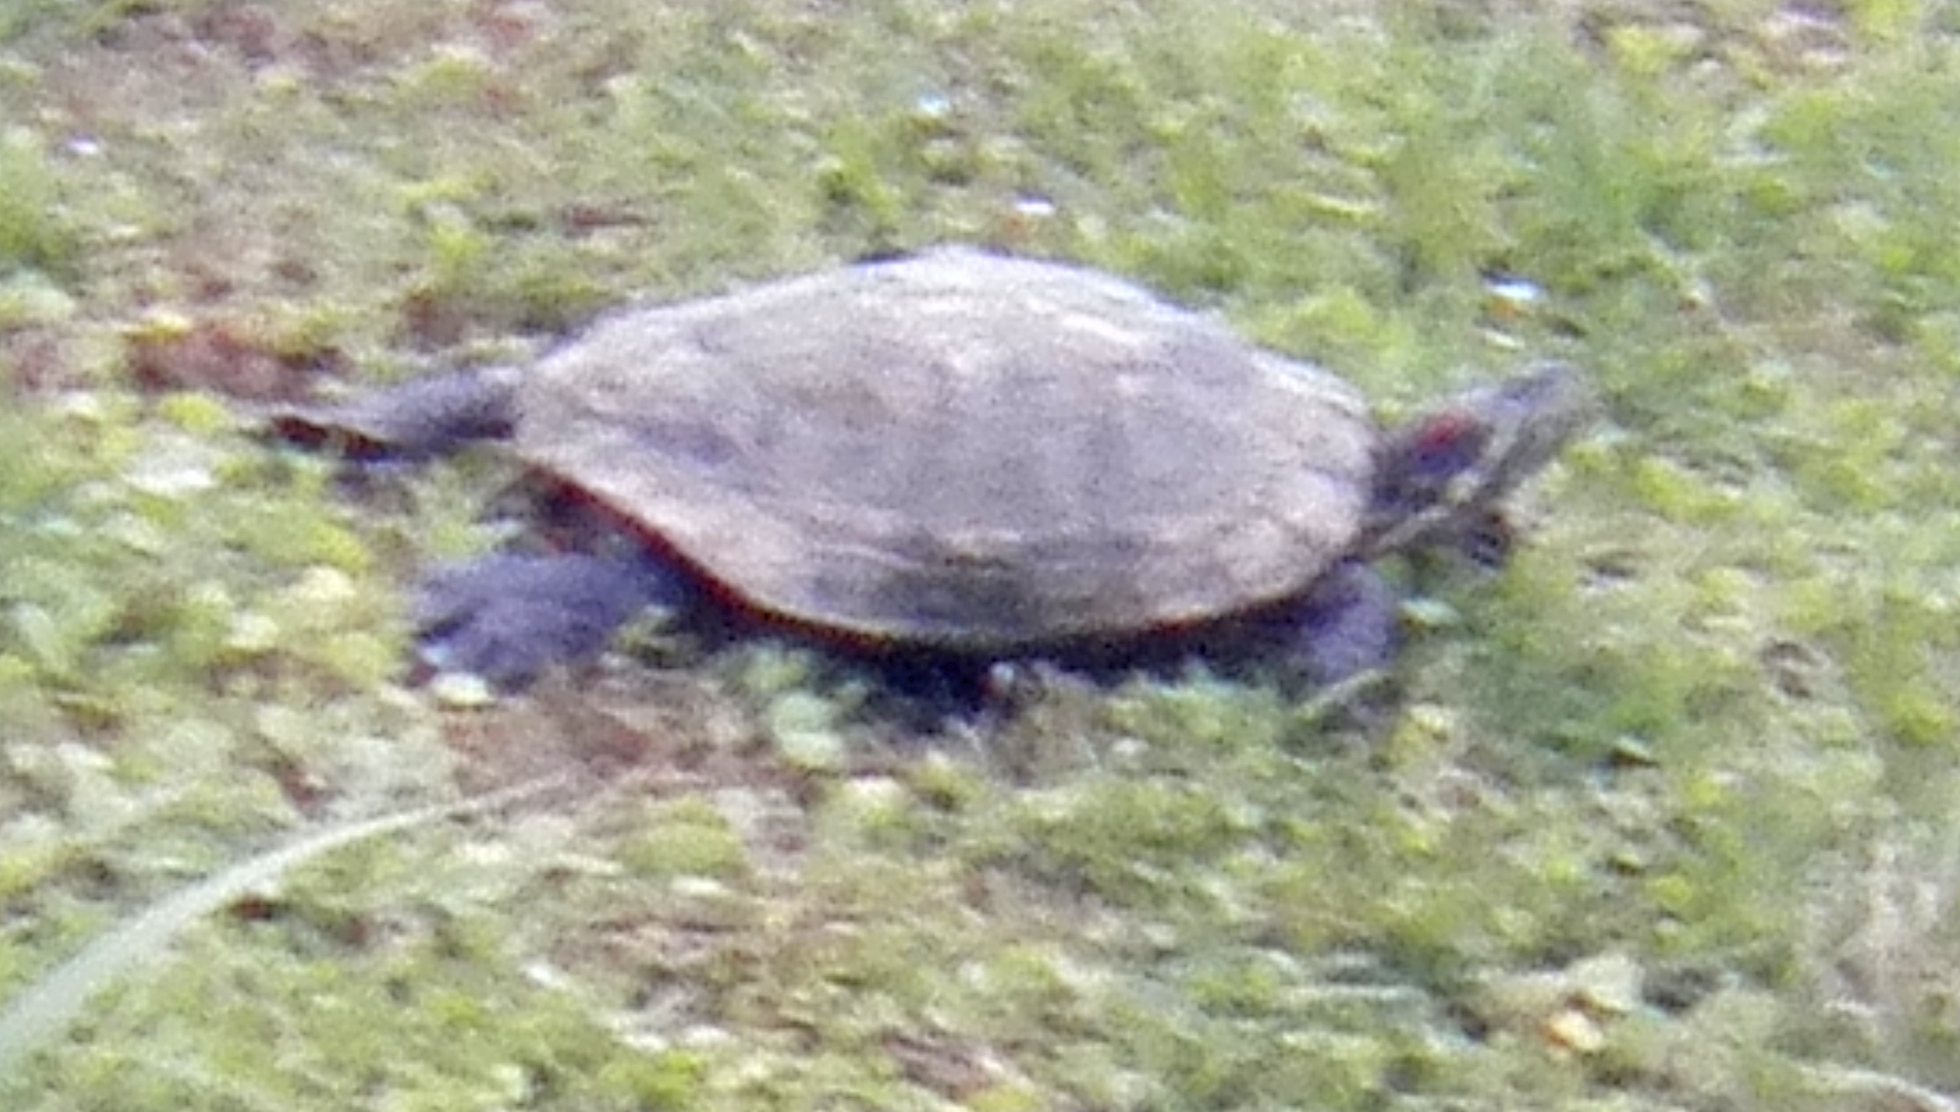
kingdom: Animalia
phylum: Chordata
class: Testudines
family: Emydidae
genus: Trachemys
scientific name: Trachemys scripta
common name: Slider
